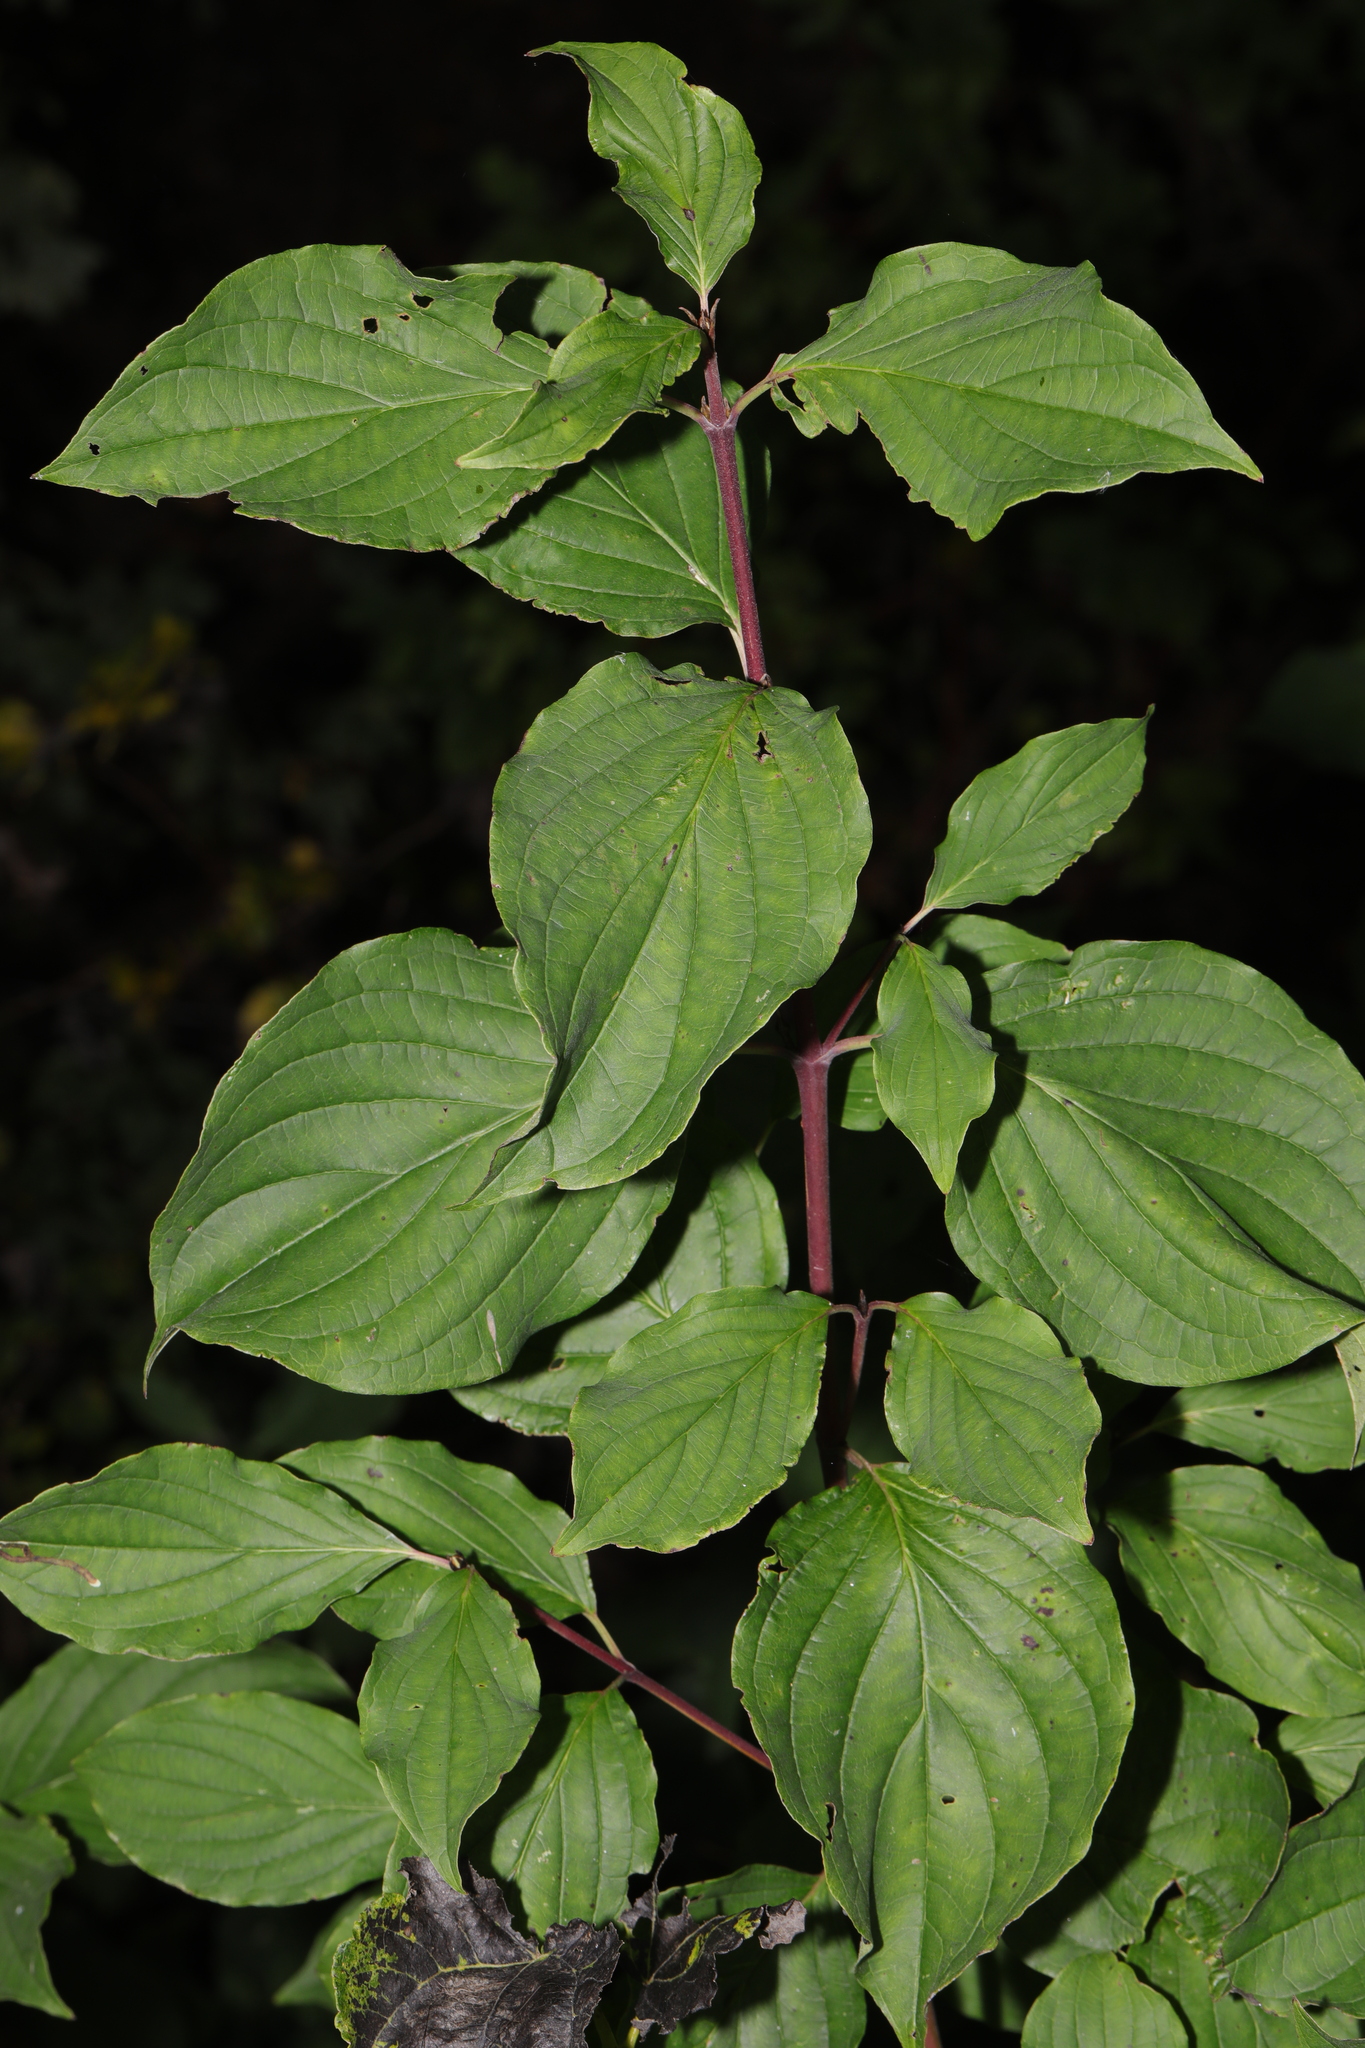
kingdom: Plantae
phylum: Tracheophyta
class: Magnoliopsida
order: Cornales
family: Cornaceae
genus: Cornus
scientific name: Cornus sanguinea
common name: Dogwood
